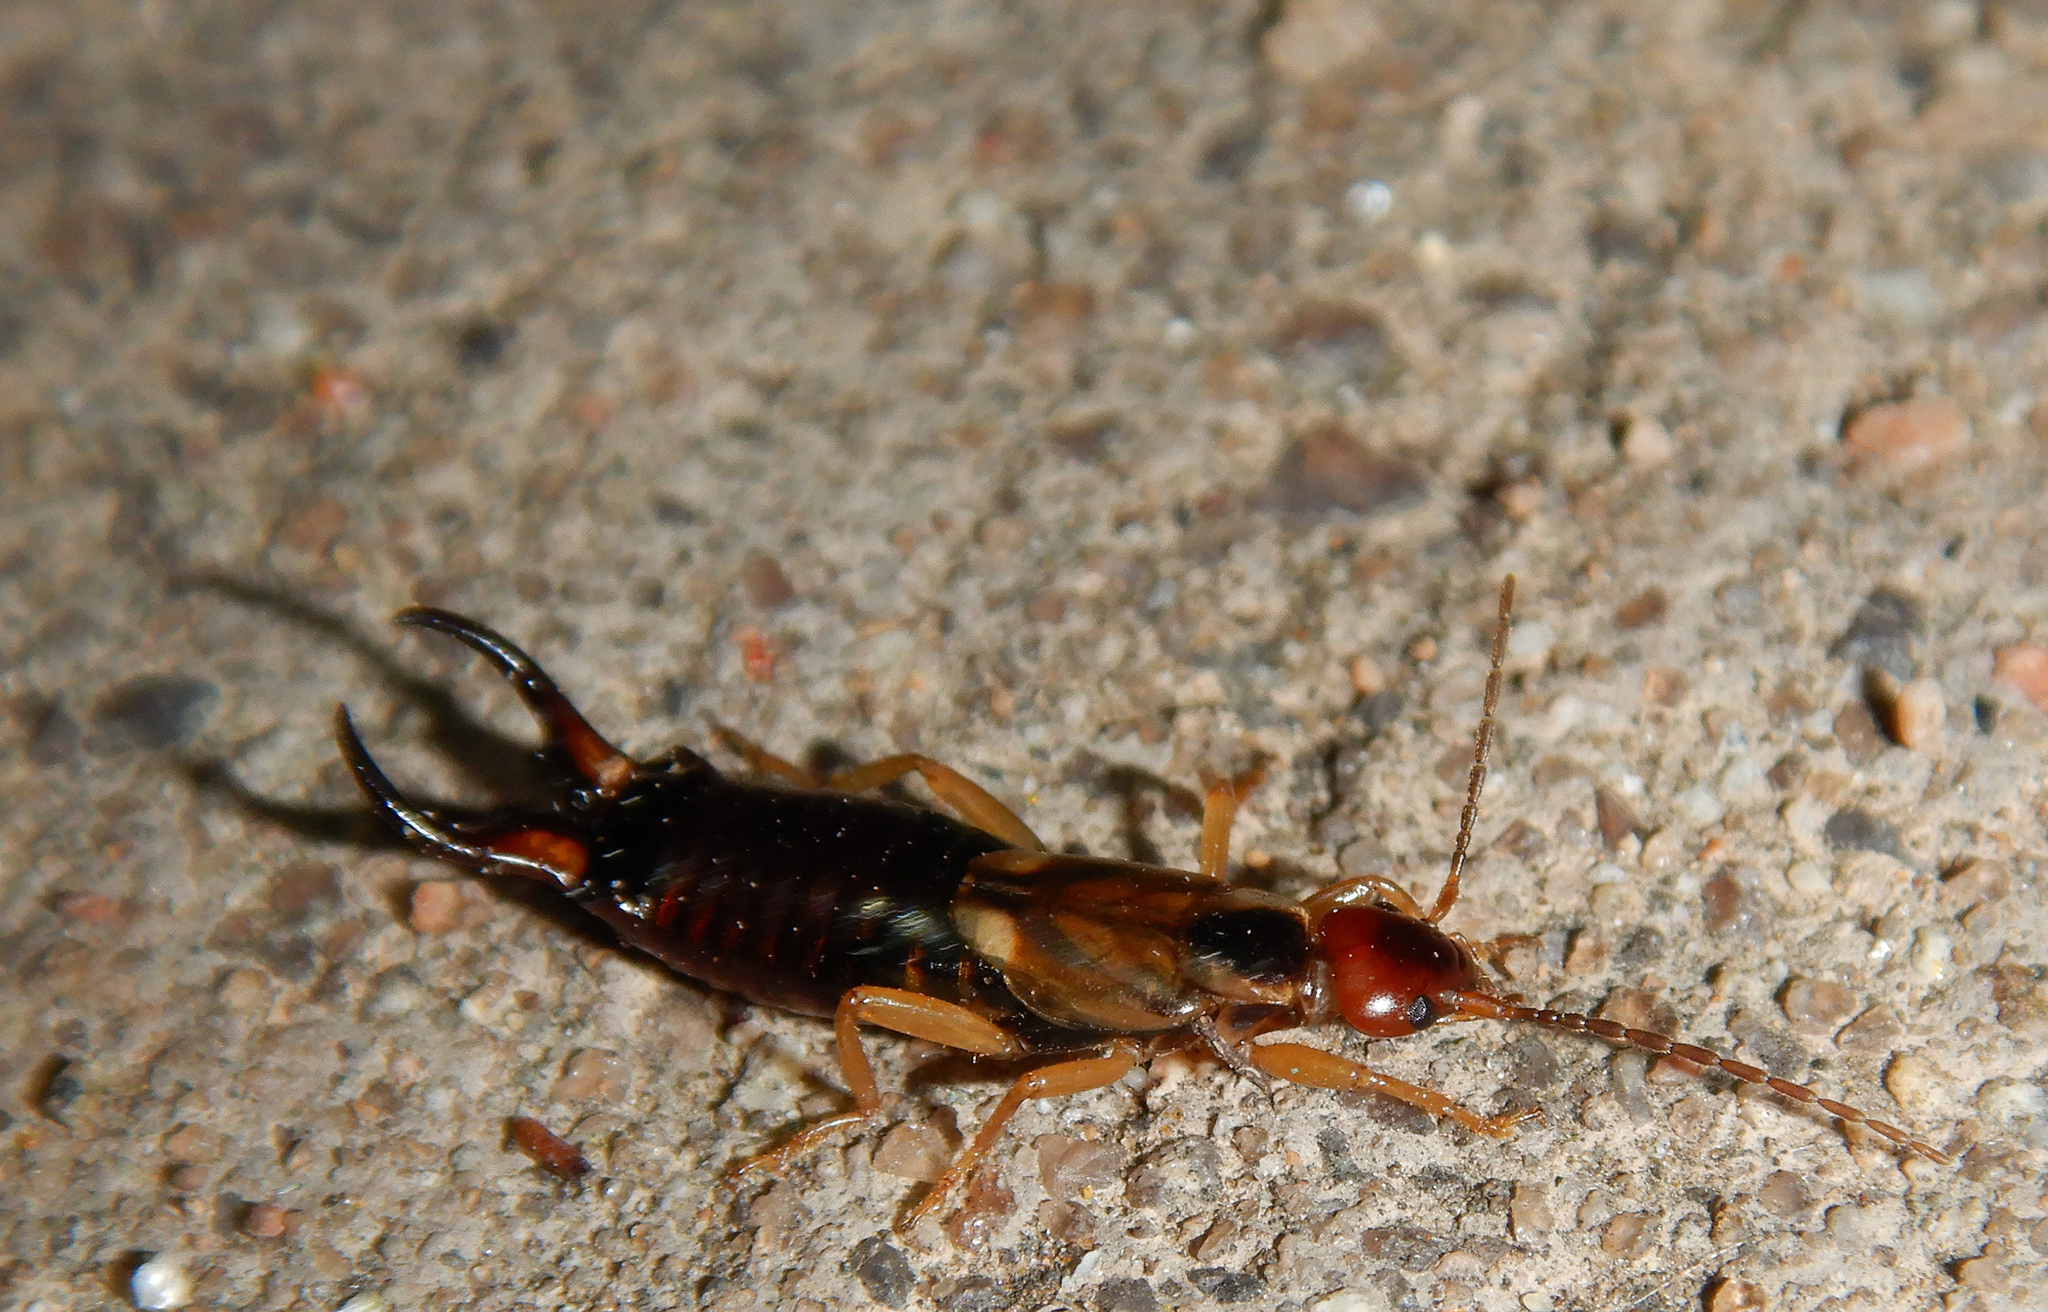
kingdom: Animalia
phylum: Arthropoda
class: Insecta
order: Dermaptera
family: Forficulidae
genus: Forficula
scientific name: Forficula
